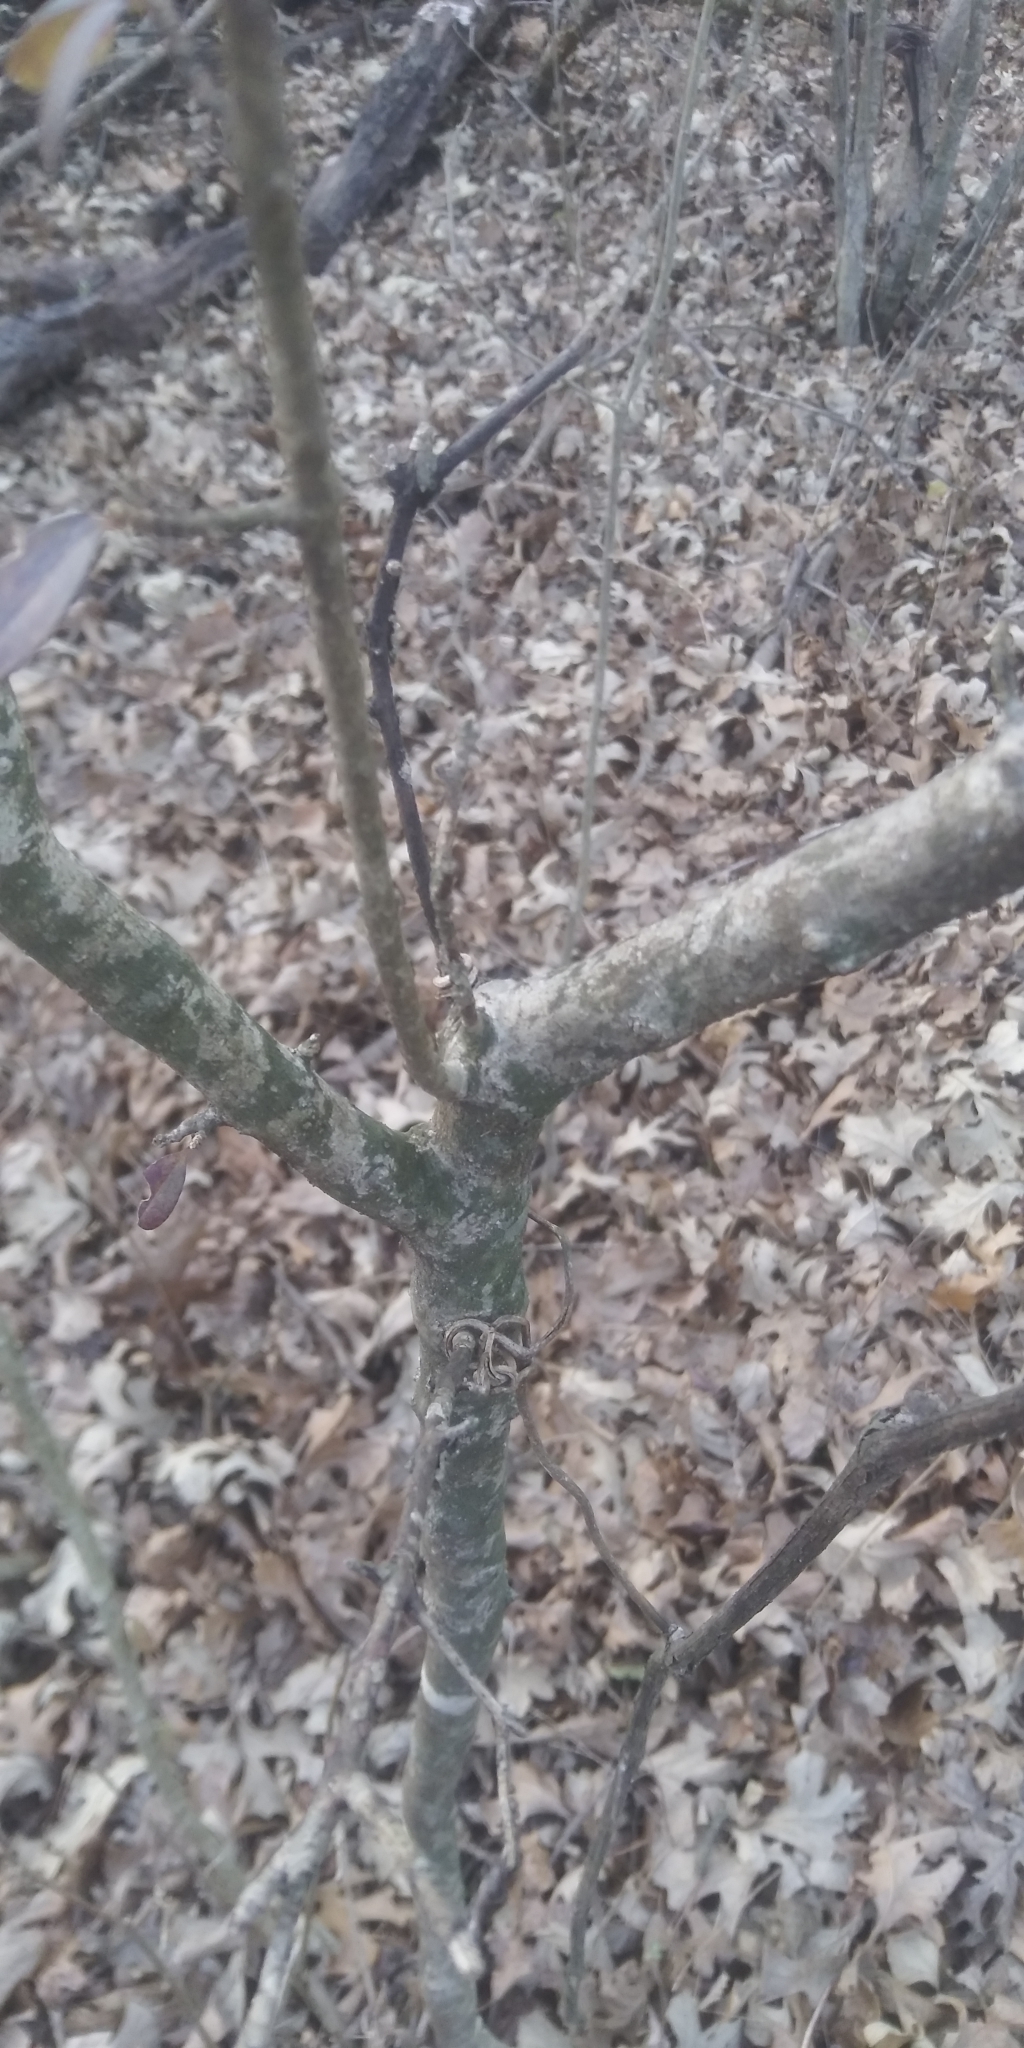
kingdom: Plantae
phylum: Tracheophyta
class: Magnoliopsida
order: Lamiales
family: Oleaceae
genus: Ligustrum
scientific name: Ligustrum quihoui
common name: Waxyleaf privet
